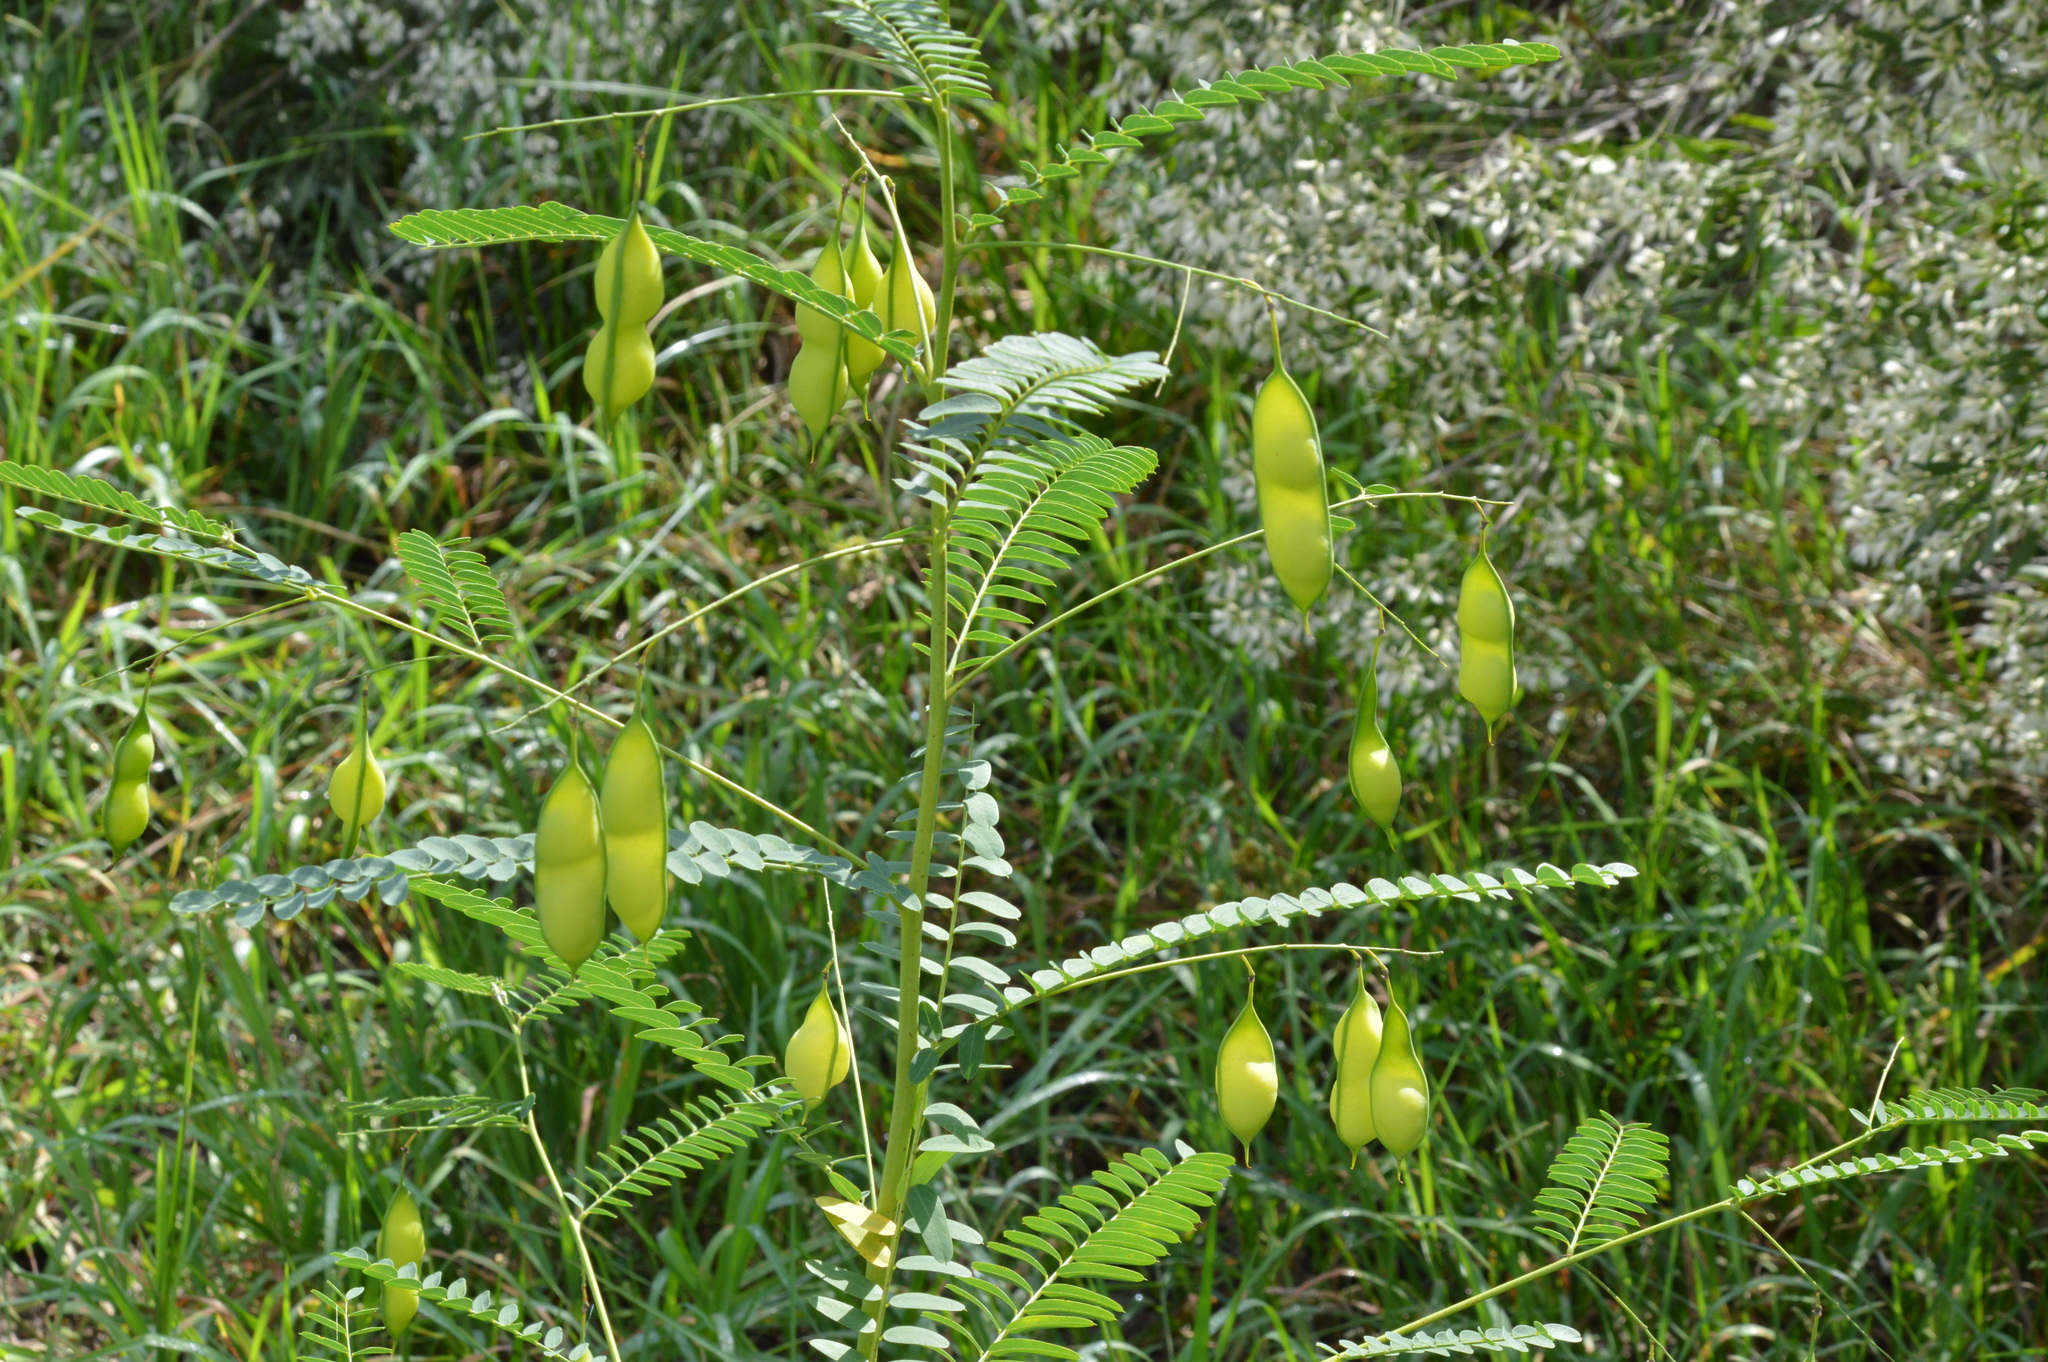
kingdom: Plantae
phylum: Tracheophyta
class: Magnoliopsida
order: Fabales
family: Fabaceae
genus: Sesbania
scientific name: Sesbania vesicaria
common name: Bagpod
